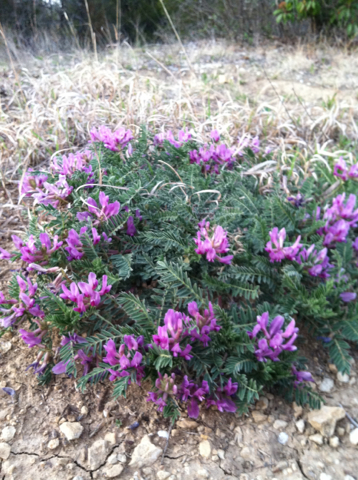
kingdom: Plantae
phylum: Tracheophyta
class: Magnoliopsida
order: Fabales
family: Fabaceae
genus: Astragalus
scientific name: Astragalus crassicarpus
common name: Ground-plum milk-vetch
